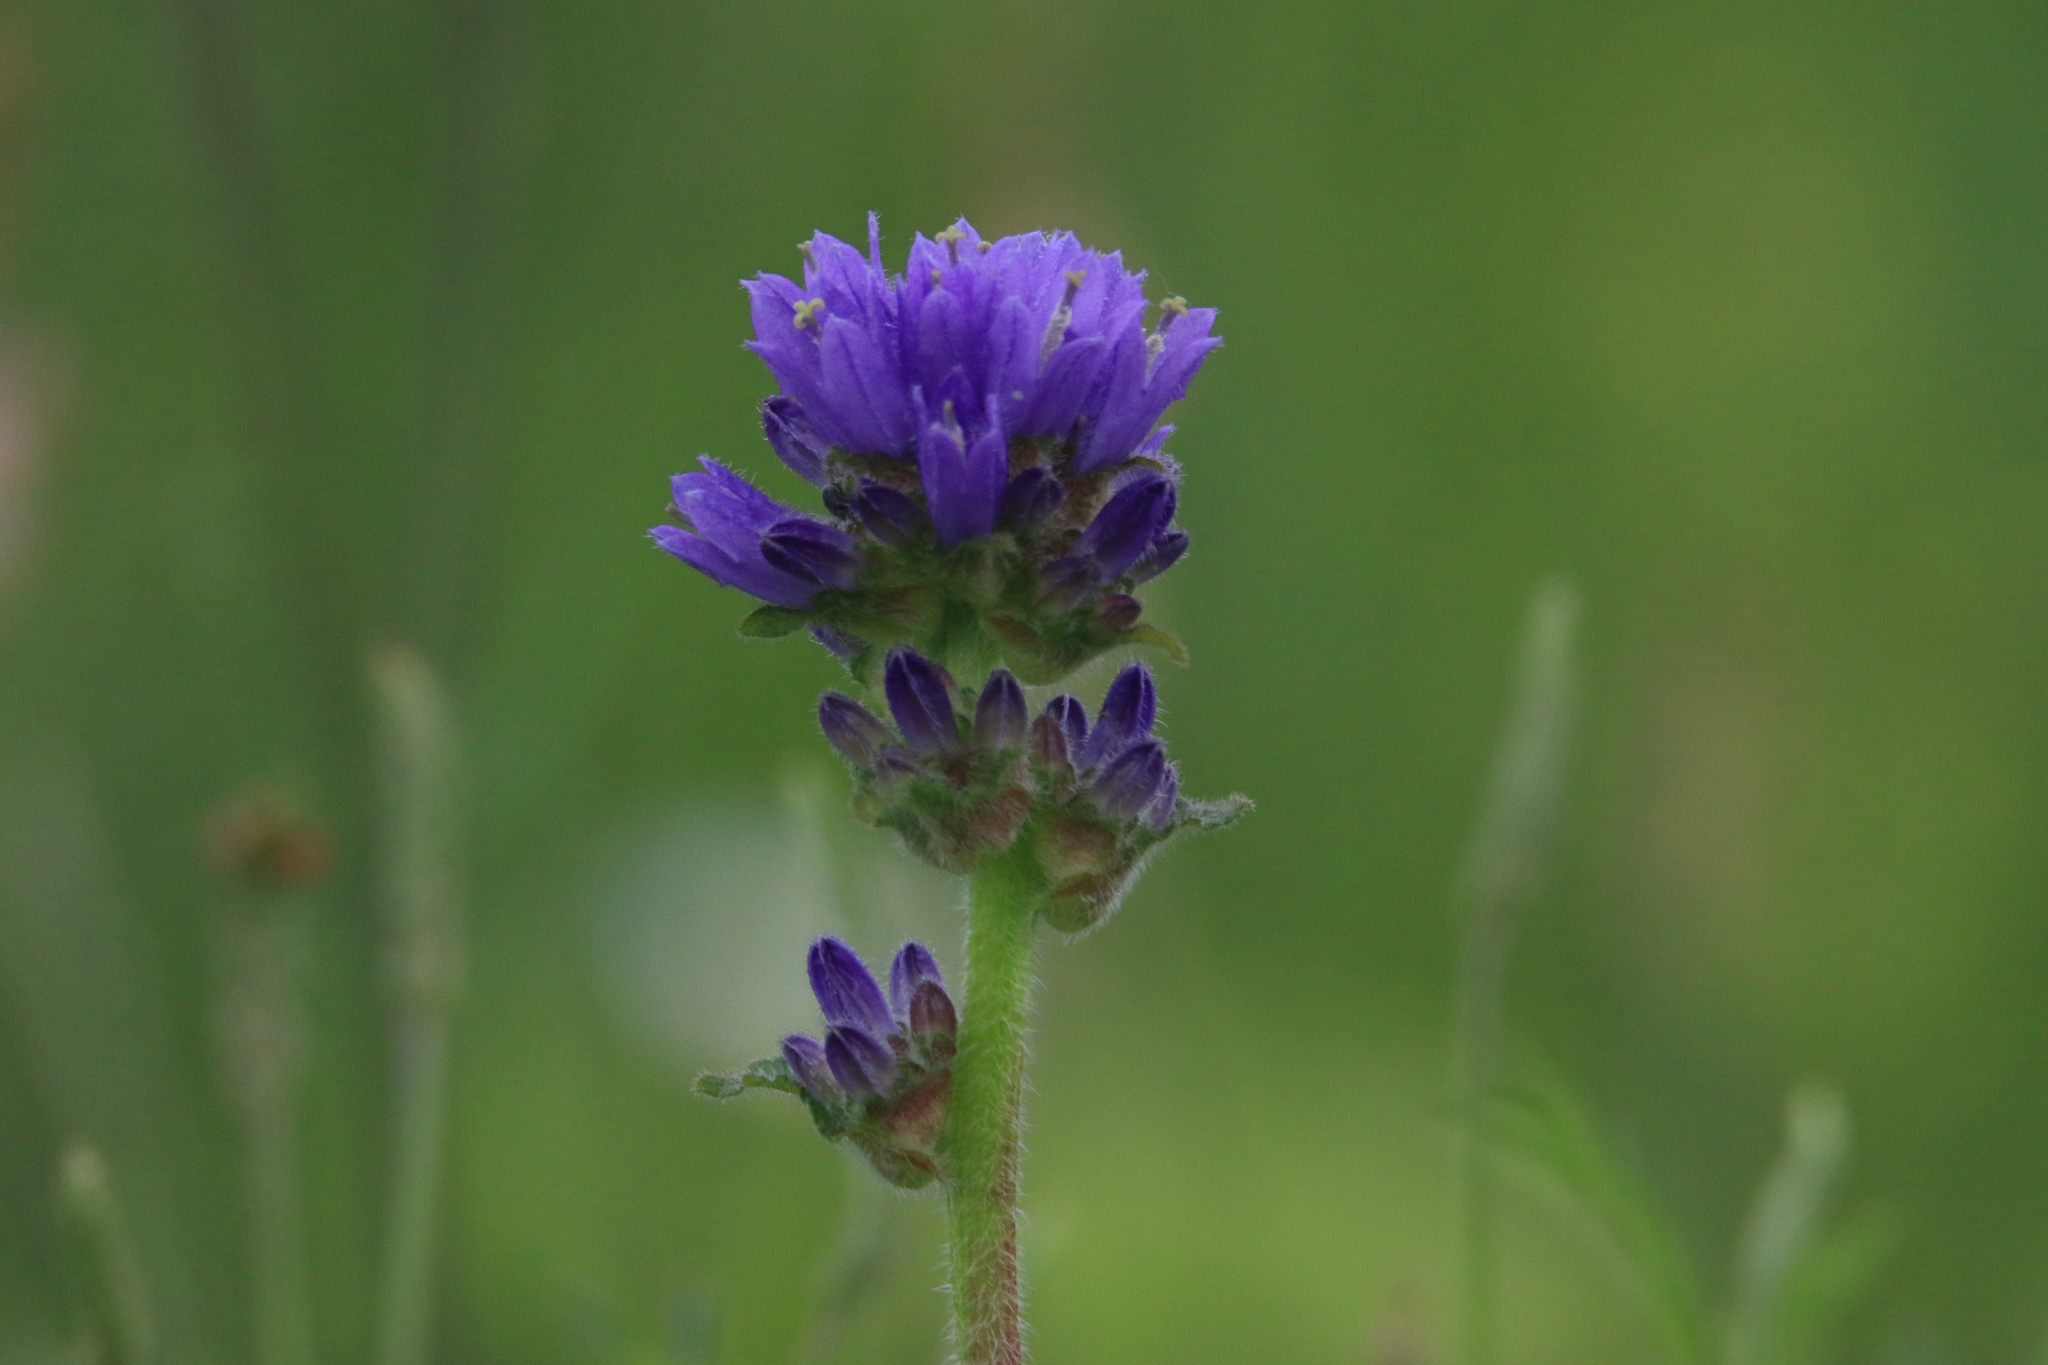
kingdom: Plantae
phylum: Tracheophyta
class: Magnoliopsida
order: Asterales
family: Campanulaceae
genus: Campanula
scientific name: Campanula cervicaria
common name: Bristly bellflower
